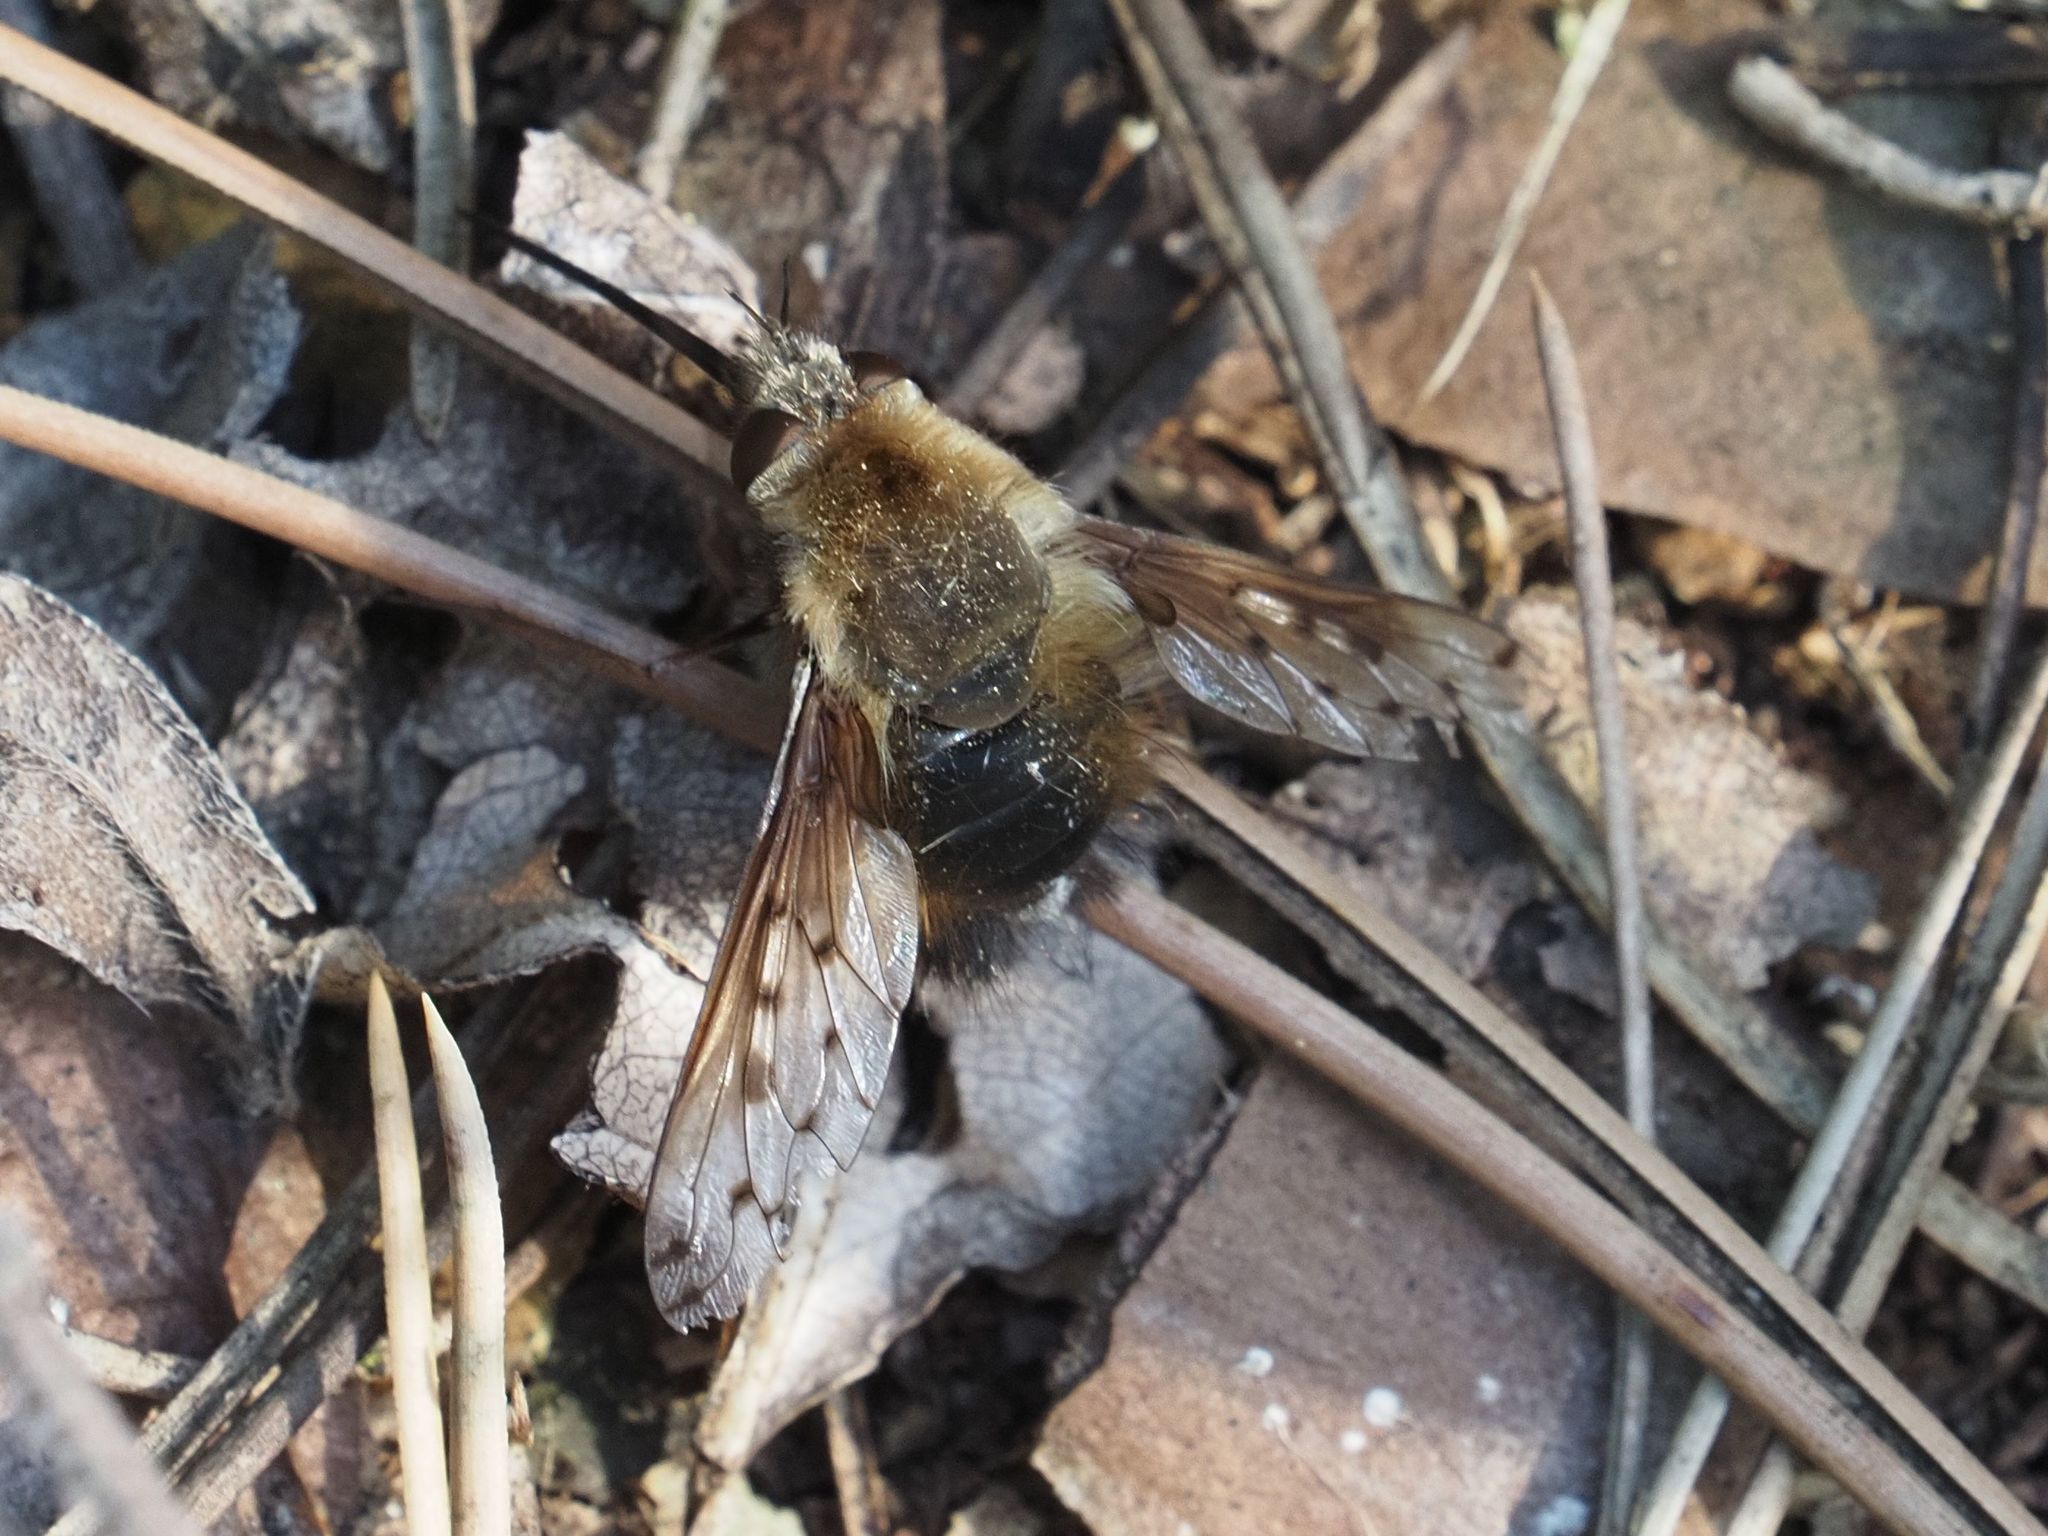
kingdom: Animalia
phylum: Arthropoda
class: Insecta
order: Diptera
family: Bombyliidae
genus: Bombylius
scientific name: Bombylius discolor
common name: Dotted bee-fly
